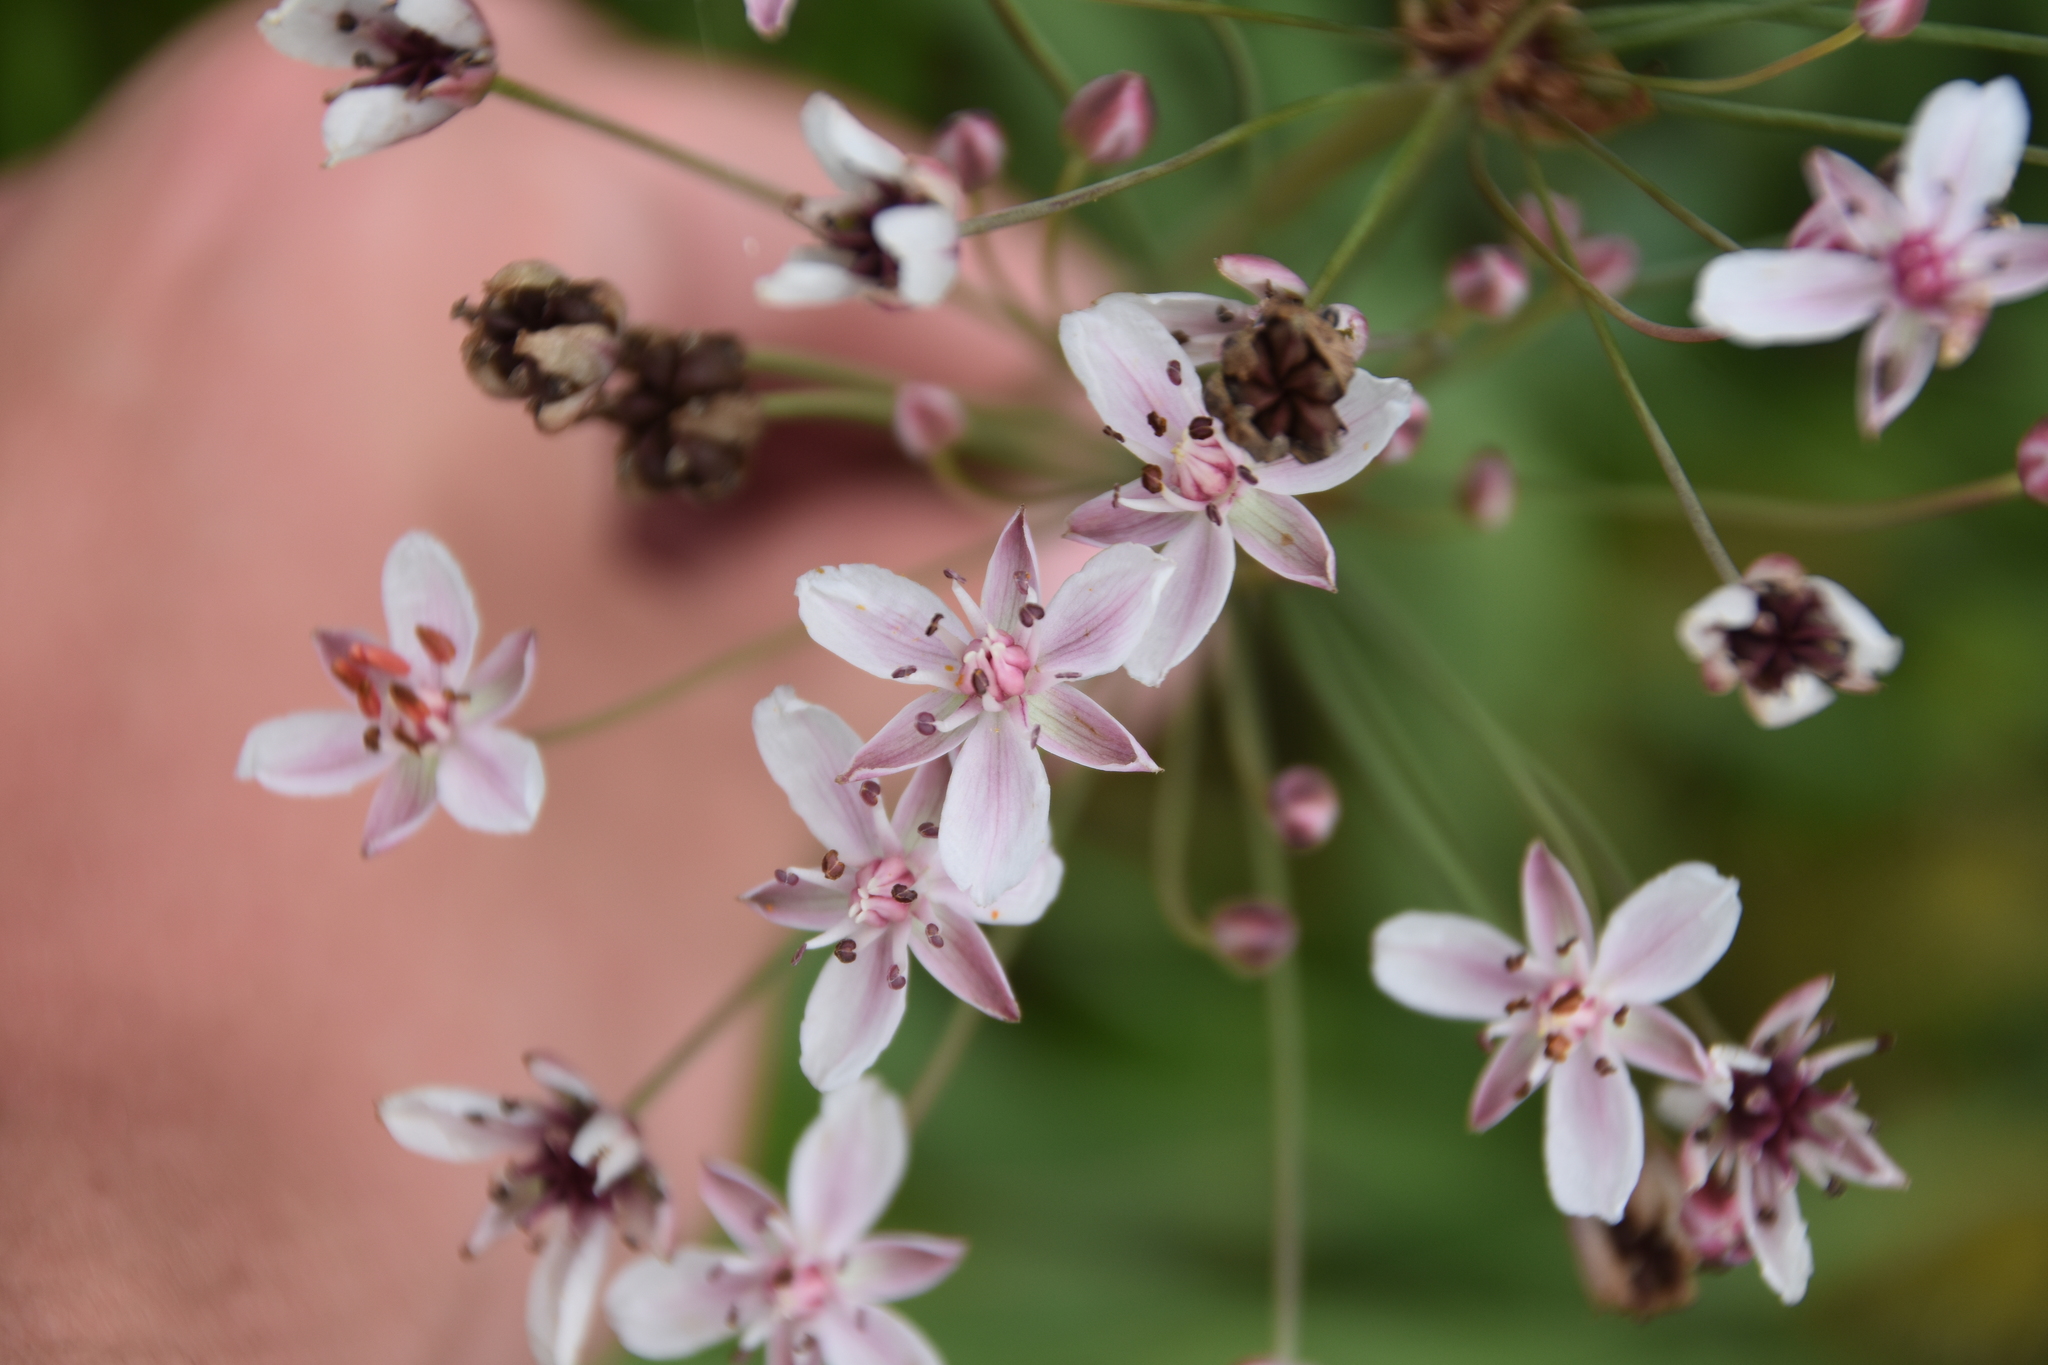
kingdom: Plantae
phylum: Tracheophyta
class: Liliopsida
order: Alismatales
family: Butomaceae
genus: Butomus
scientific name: Butomus umbellatus
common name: Flowering-rush
